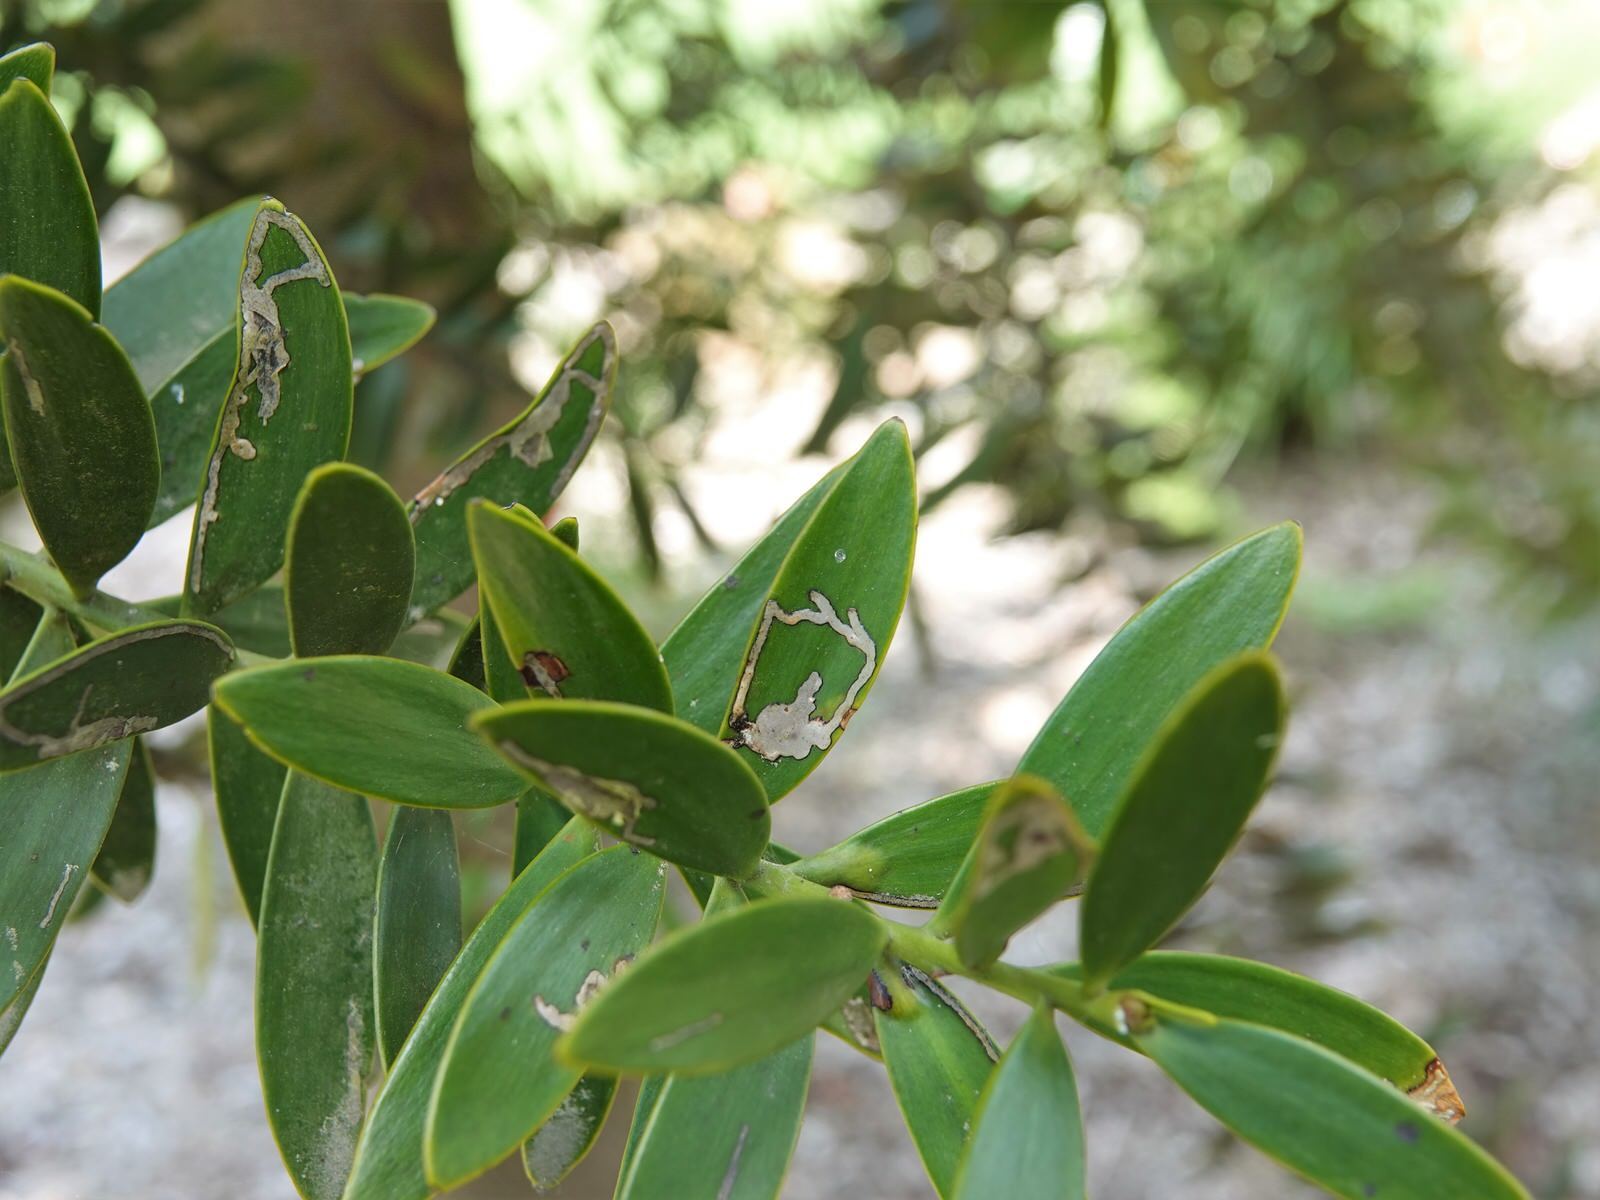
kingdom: Animalia
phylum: Arthropoda
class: Insecta
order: Lepidoptera
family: Gracillariidae
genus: Acrocercops
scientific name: Acrocercops leucotoma
